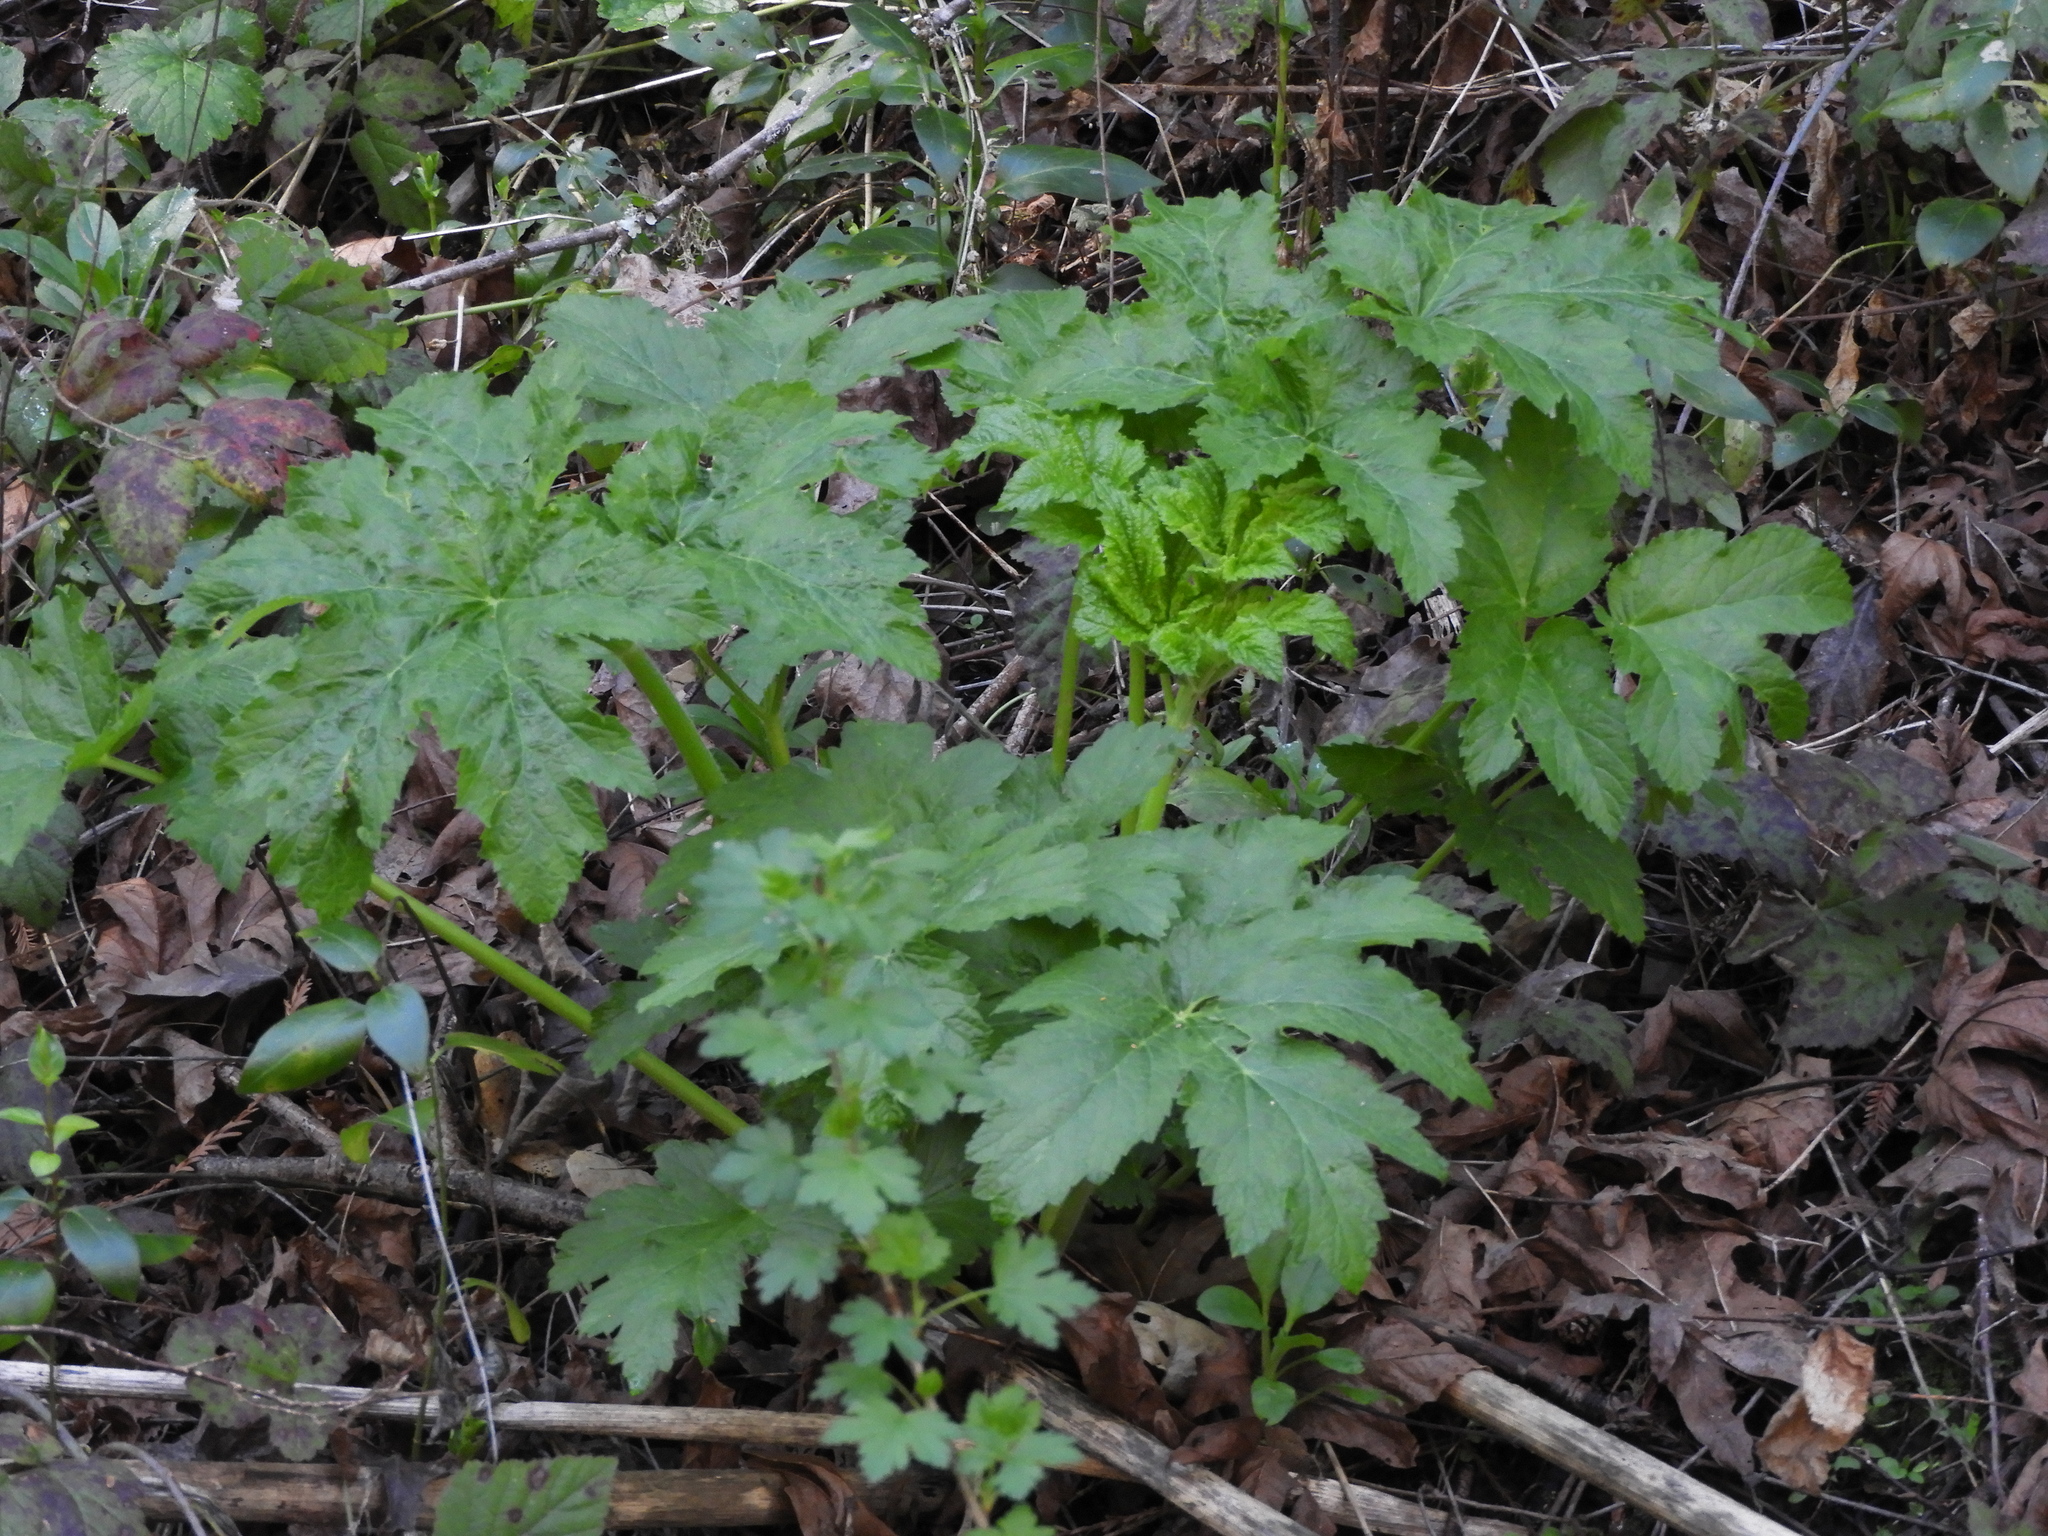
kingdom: Plantae
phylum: Tracheophyta
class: Magnoliopsida
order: Apiales
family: Apiaceae
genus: Heracleum
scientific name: Heracleum maximum
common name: American cow parsnip
